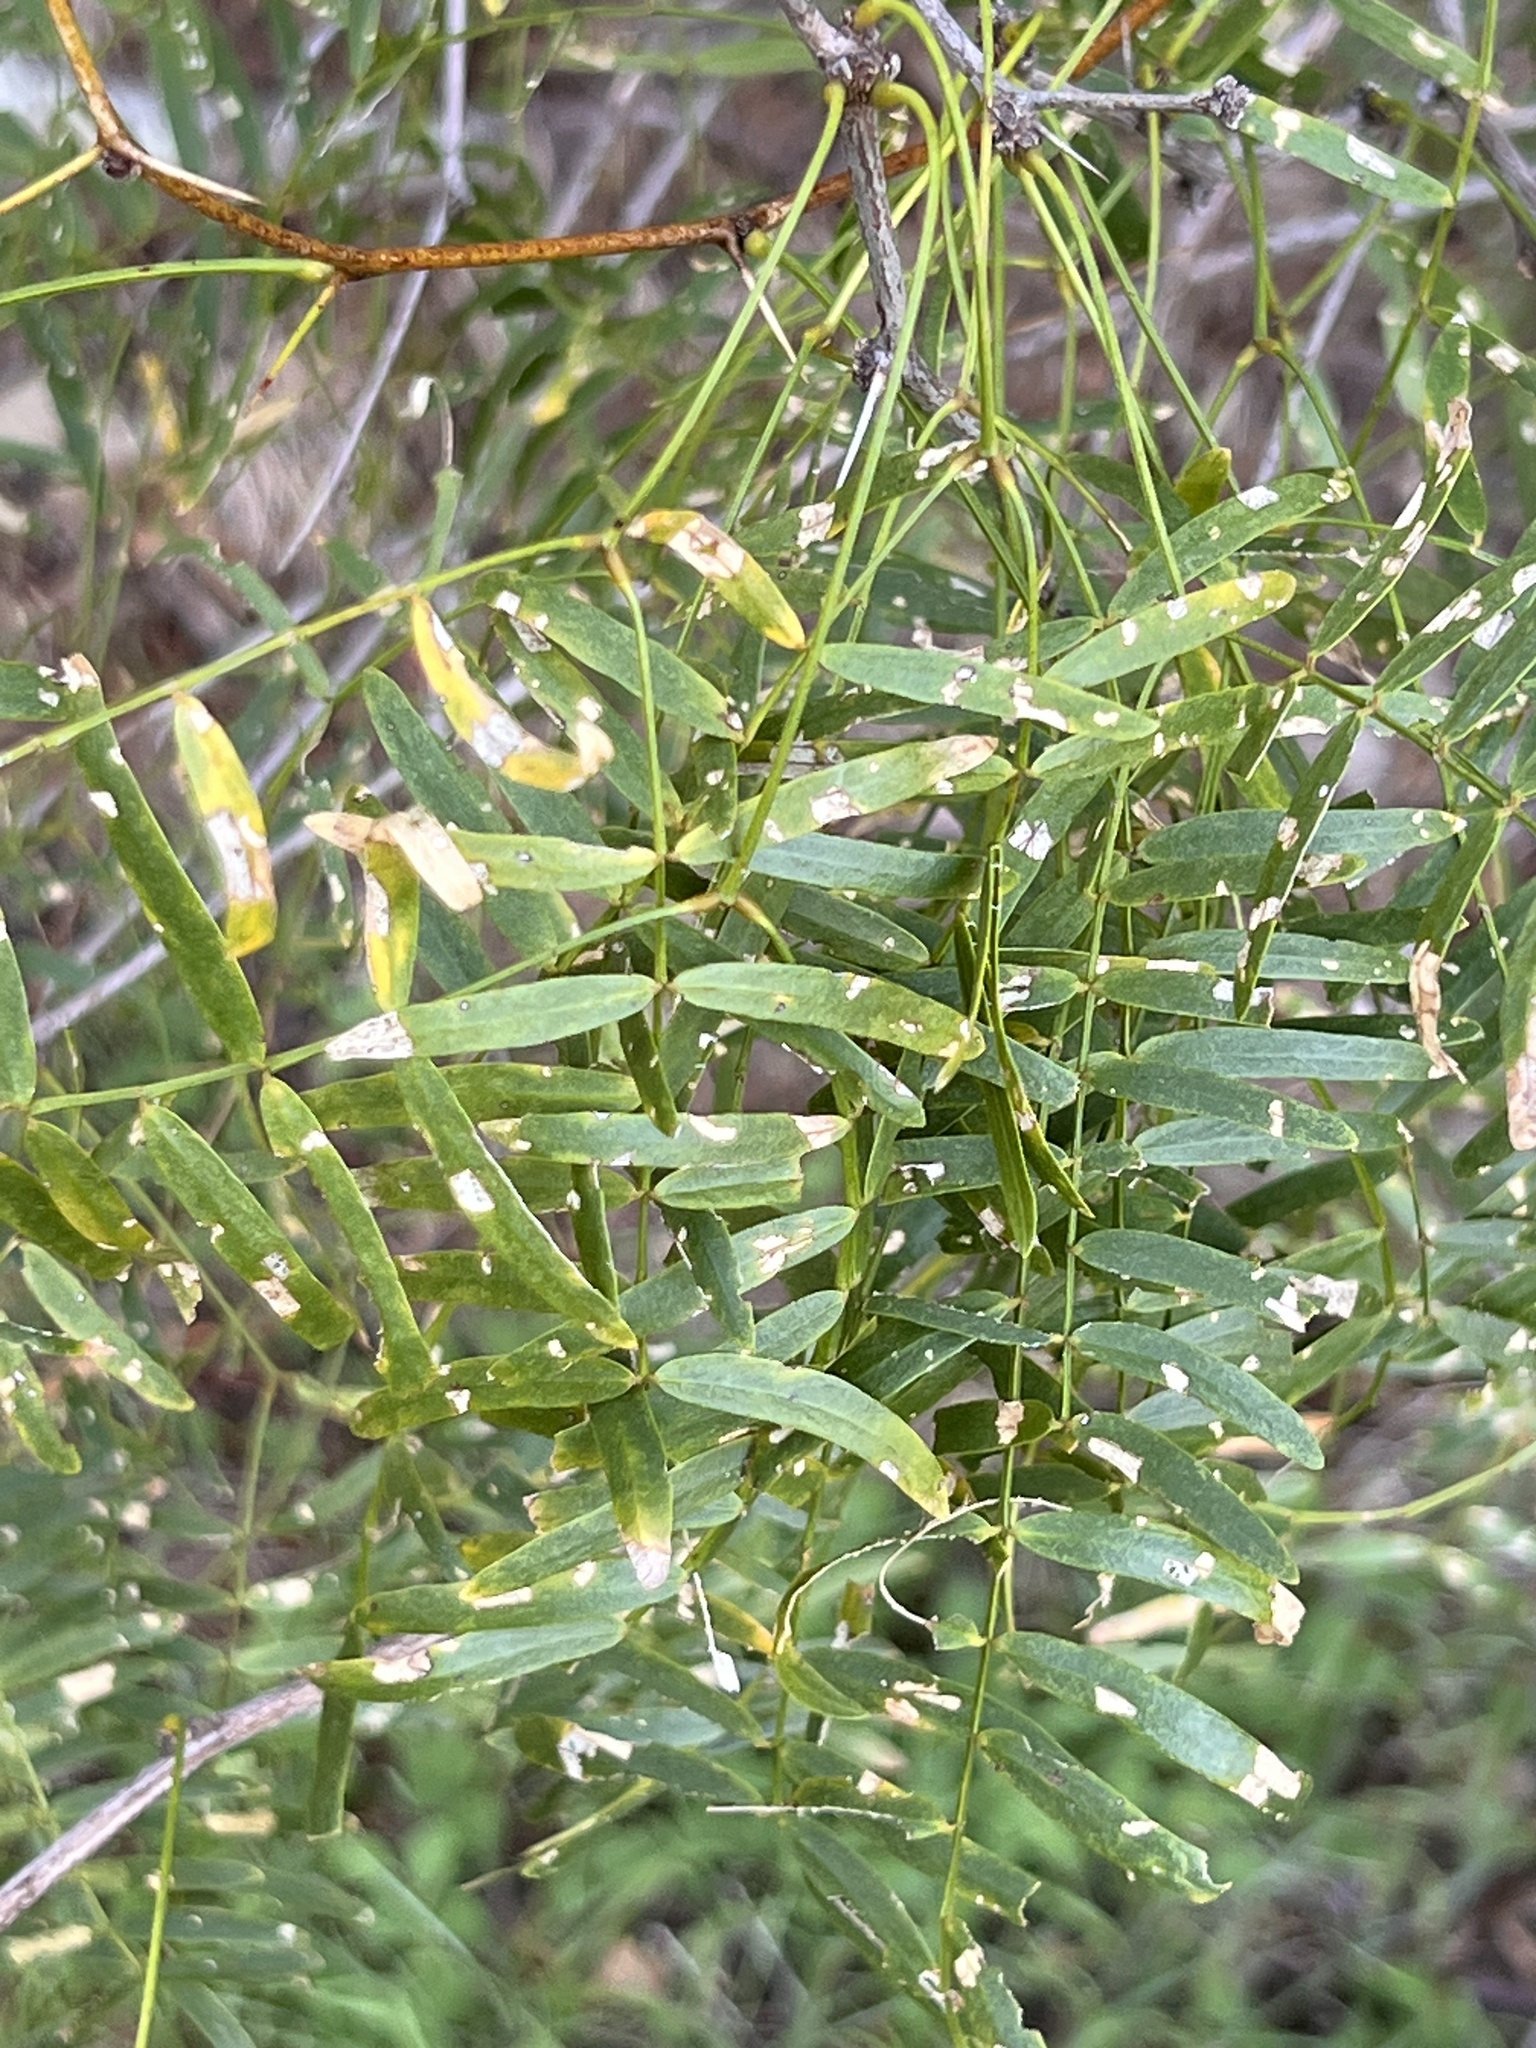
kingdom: Plantae
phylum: Tracheophyta
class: Magnoliopsida
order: Fabales
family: Fabaceae
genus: Prosopis
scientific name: Prosopis glandulosa
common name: Honey mesquite
